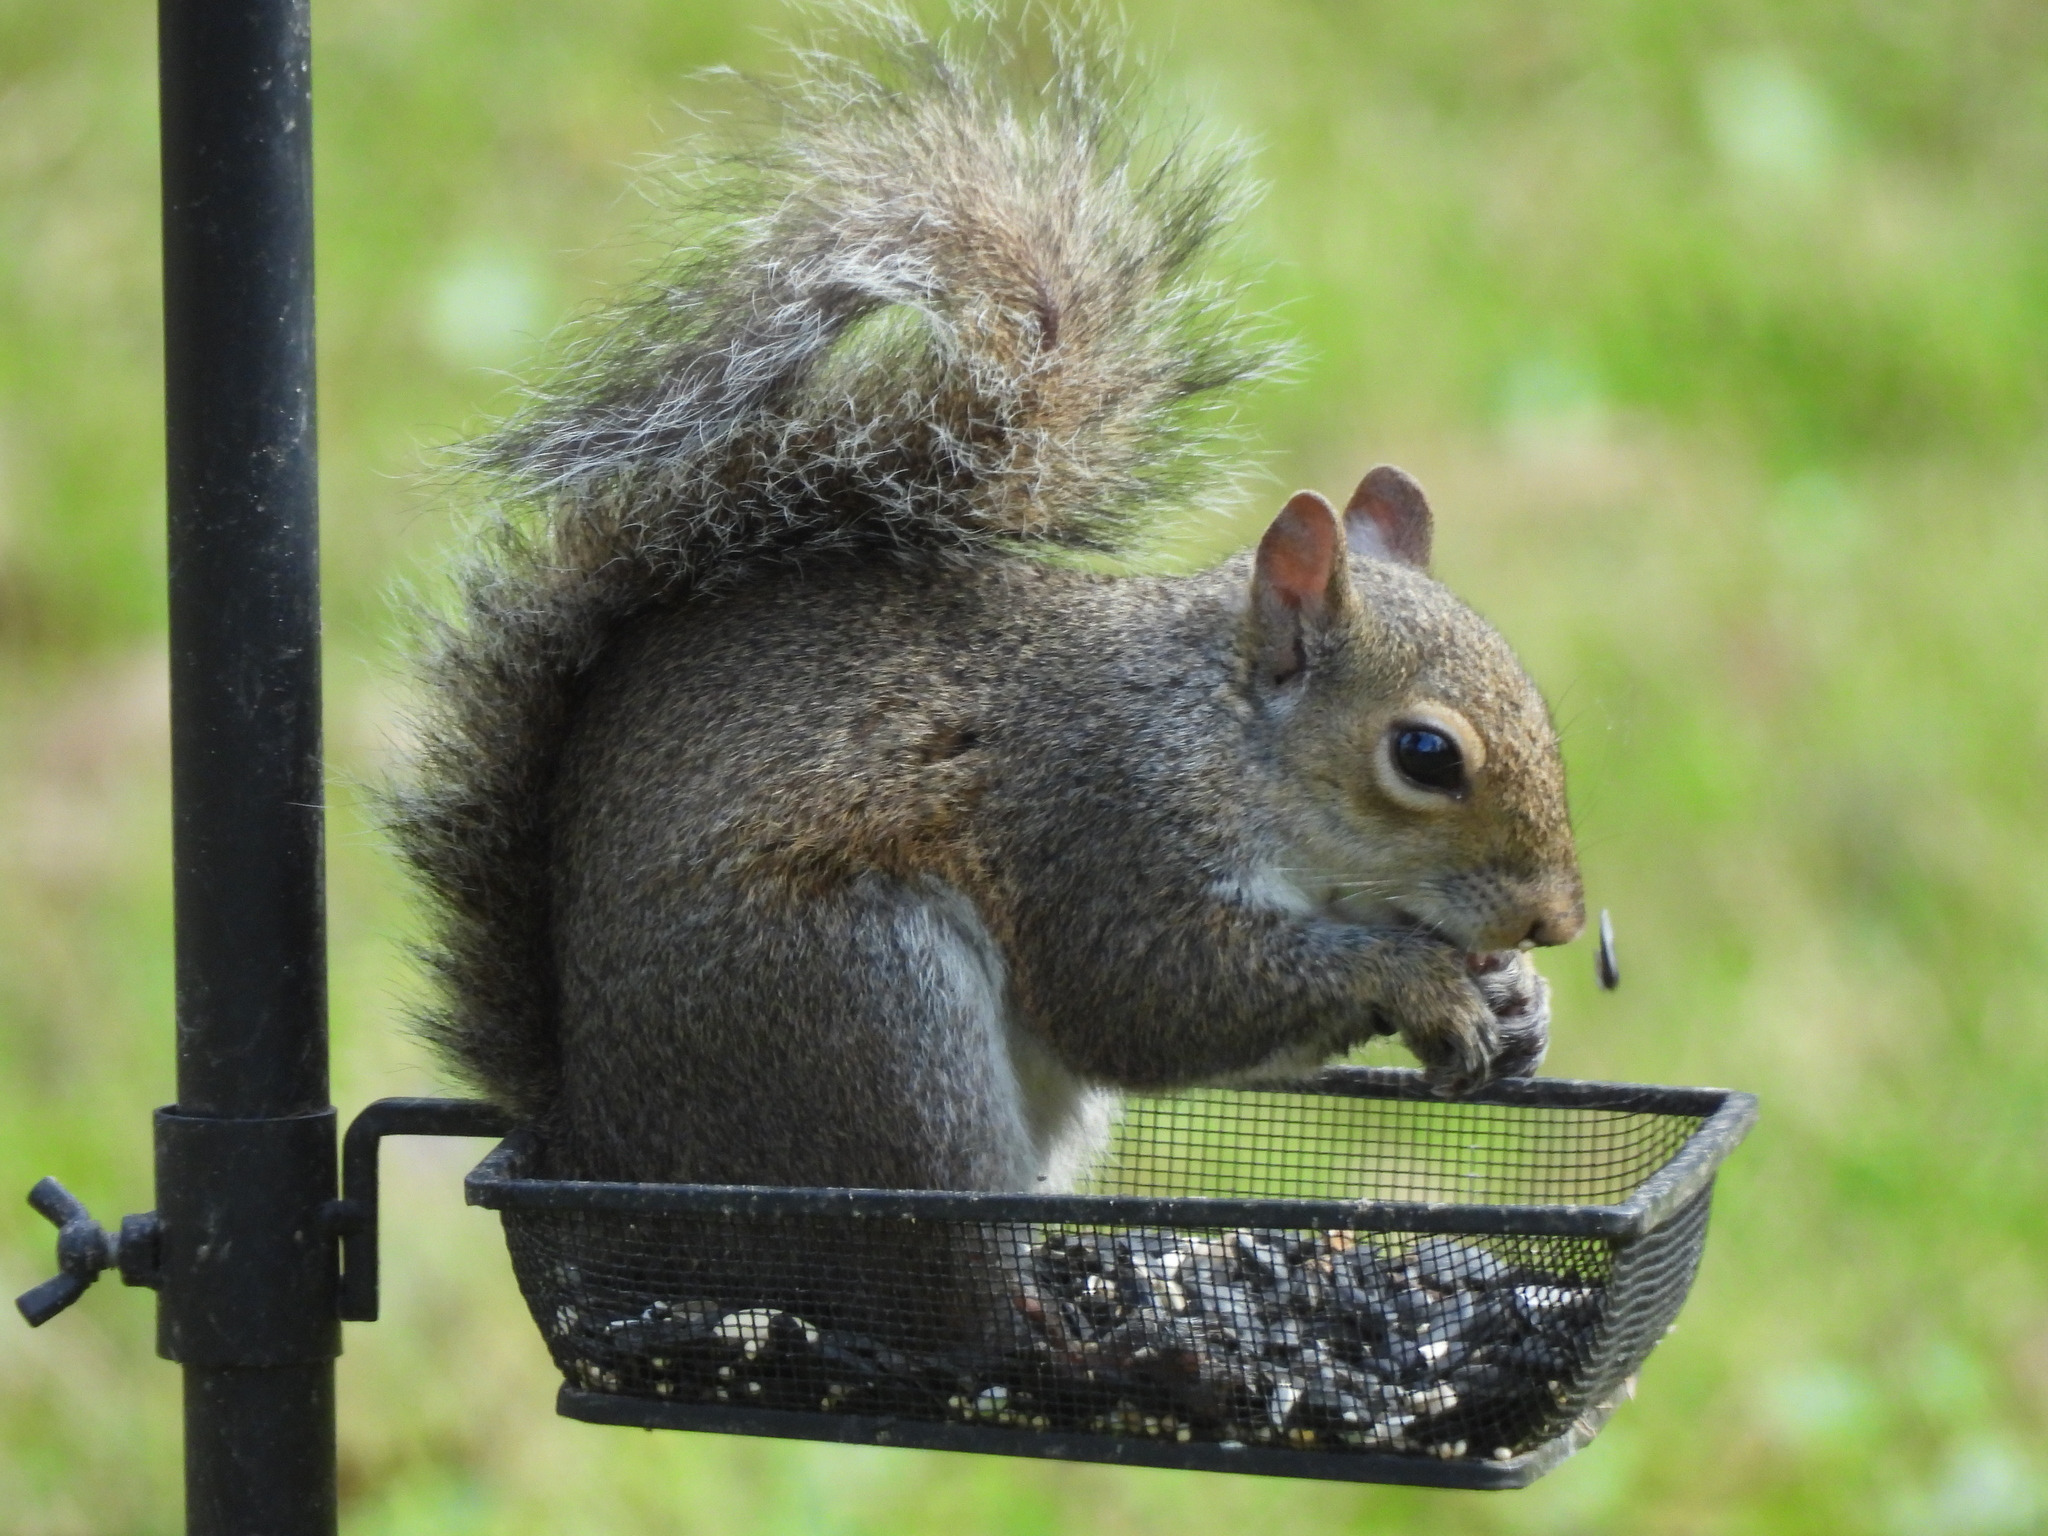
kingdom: Animalia
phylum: Chordata
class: Mammalia
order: Rodentia
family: Sciuridae
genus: Sciurus
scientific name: Sciurus carolinensis
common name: Eastern gray squirrel
